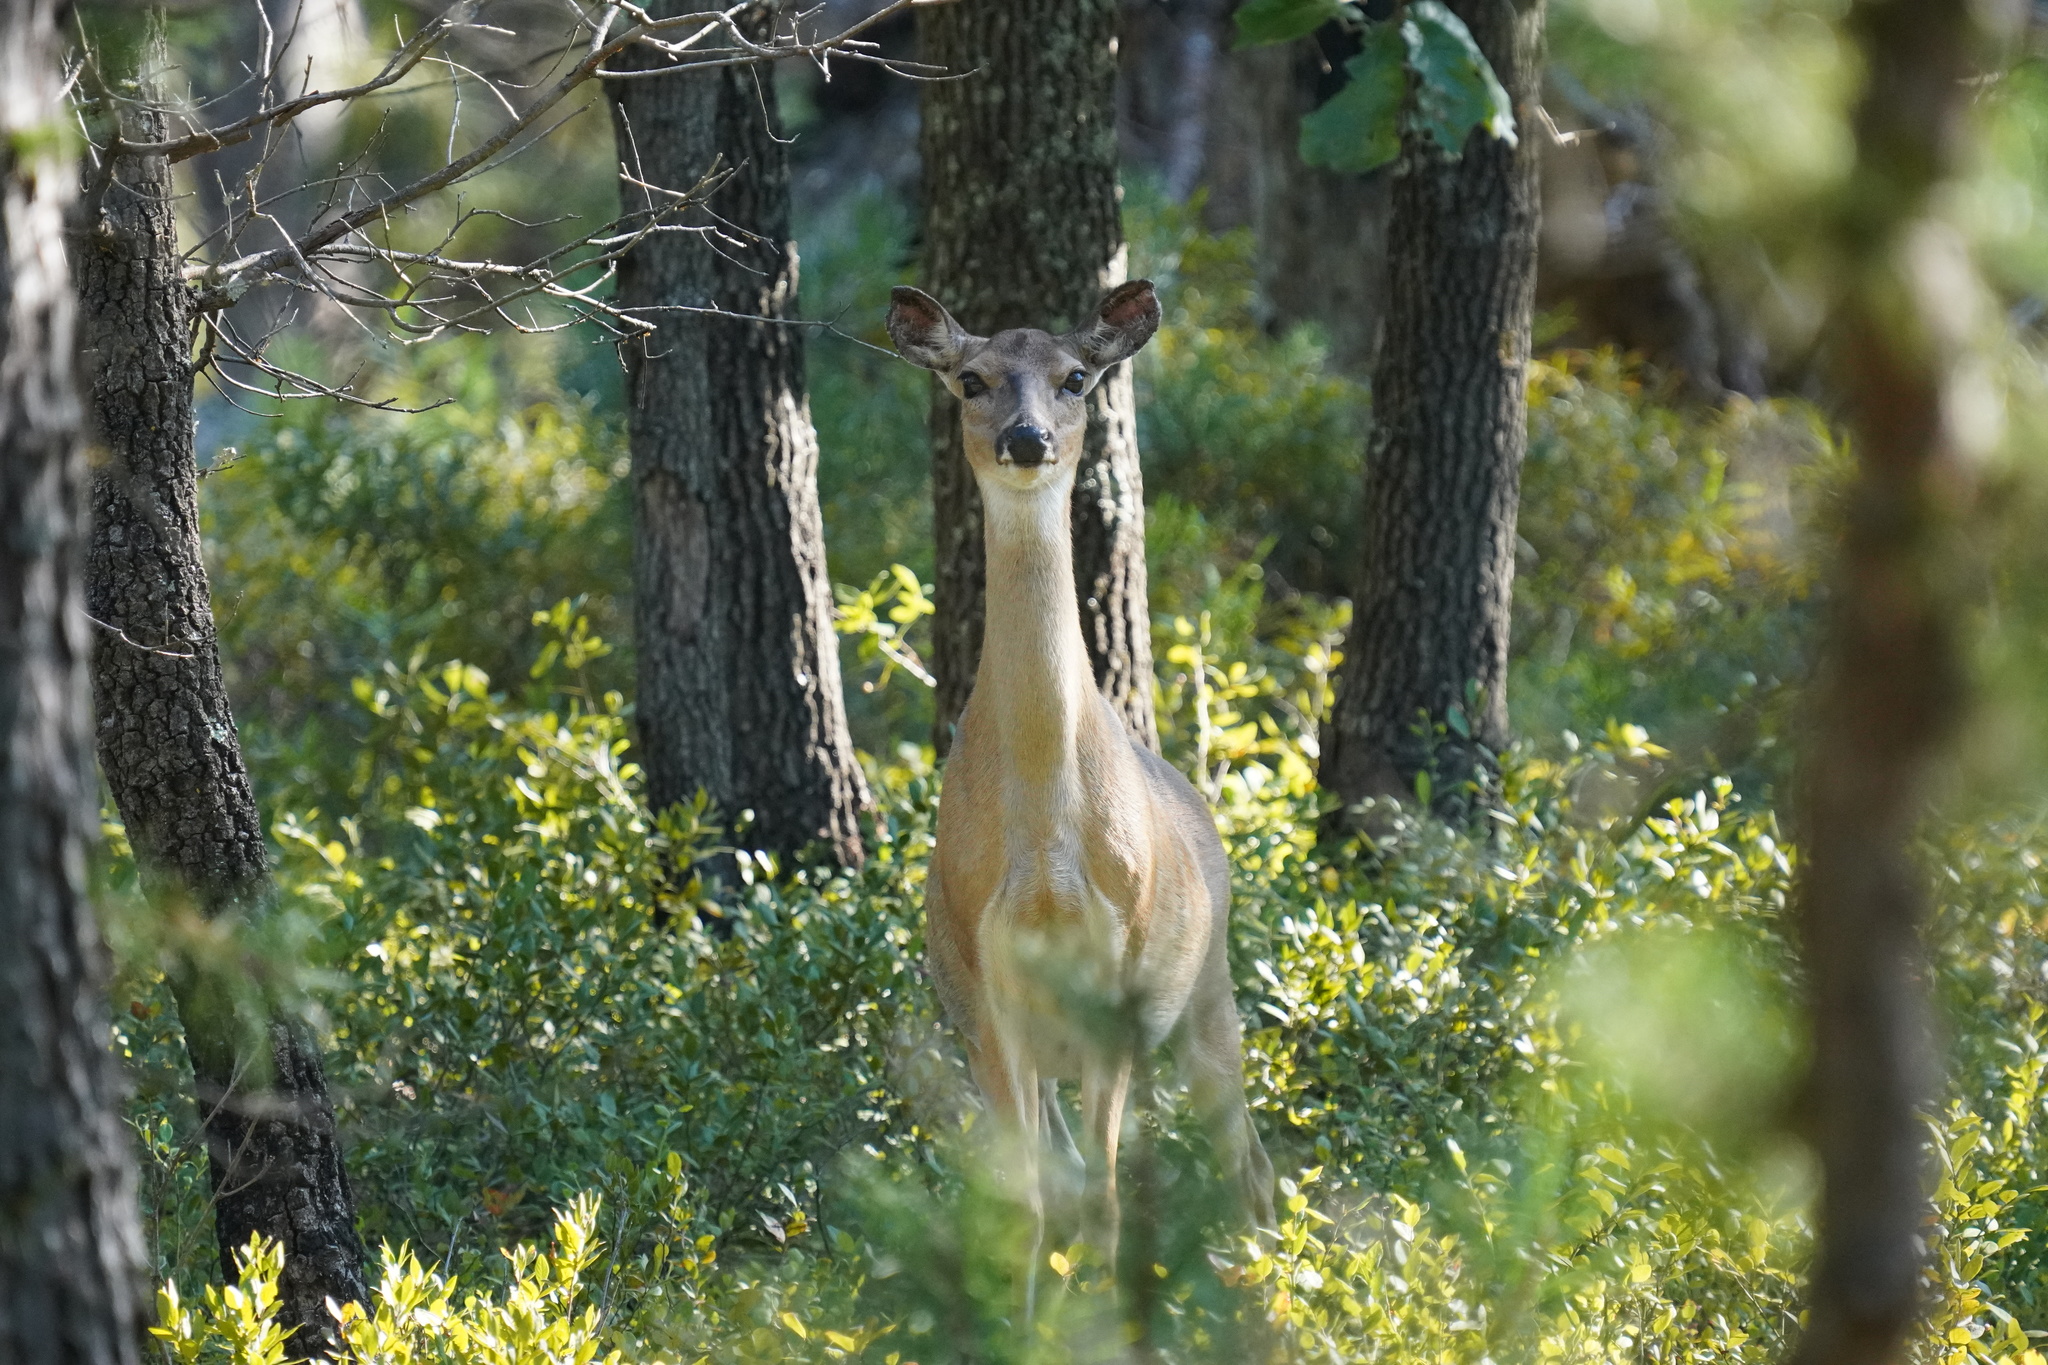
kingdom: Animalia
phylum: Chordata
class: Mammalia
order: Artiodactyla
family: Cervidae
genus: Odocoileus
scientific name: Odocoileus virginianus
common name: White-tailed deer
